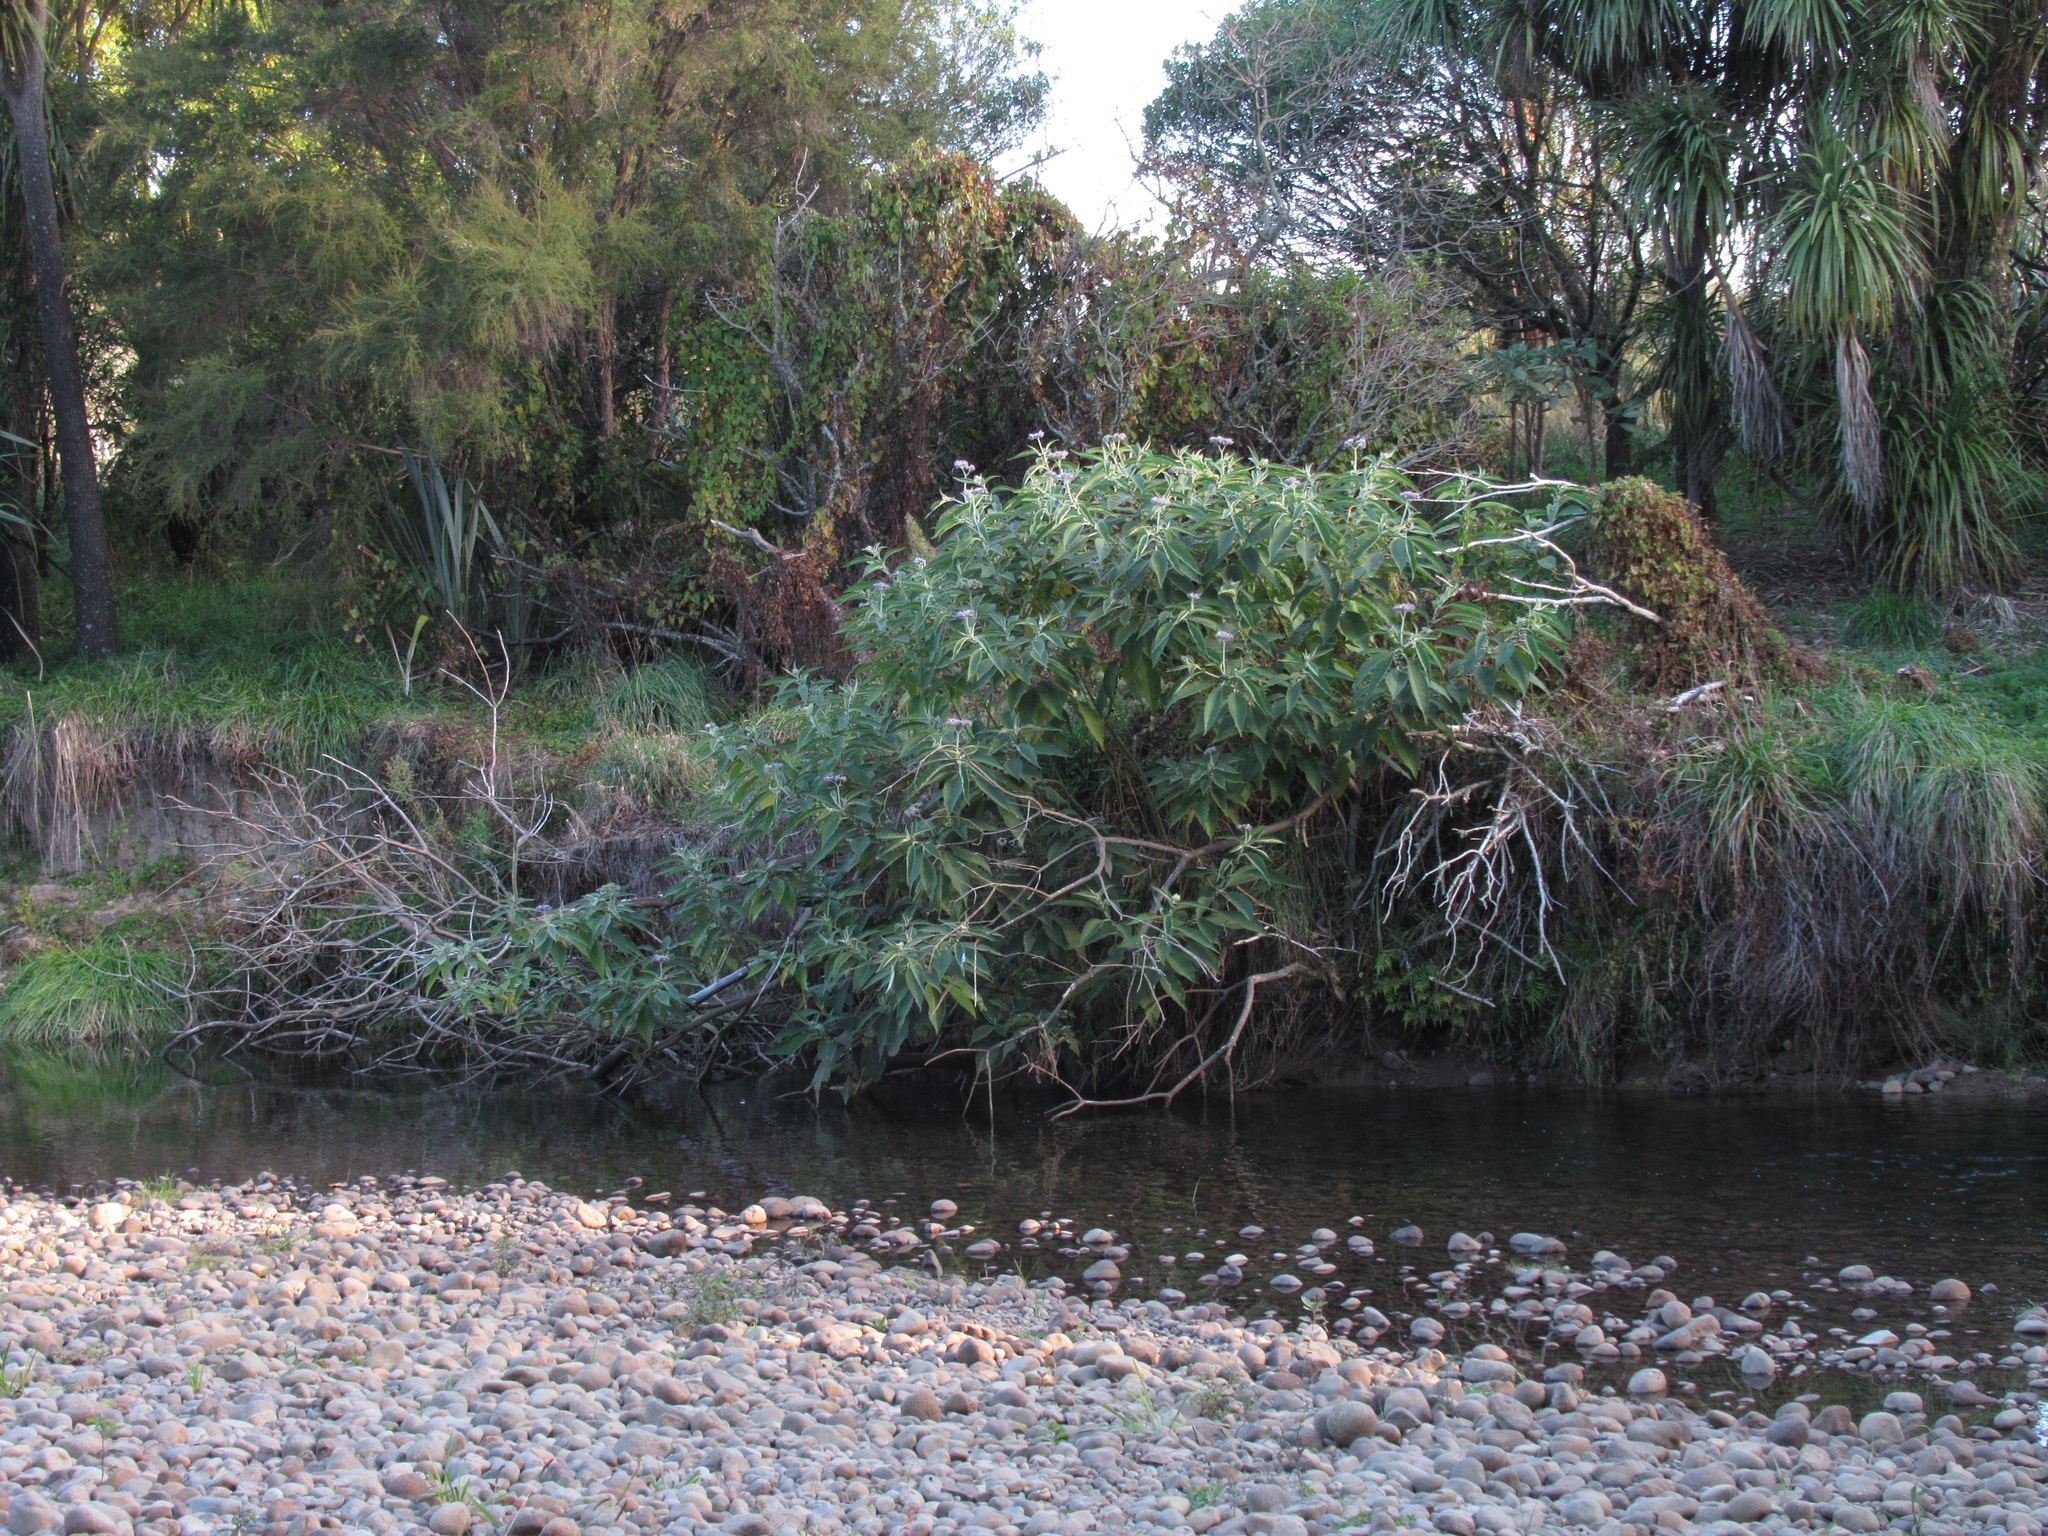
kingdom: Plantae
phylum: Tracheophyta
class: Magnoliopsida
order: Solanales
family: Solanaceae
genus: Solanum
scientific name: Solanum mauritianum
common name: Earleaf nightshade
